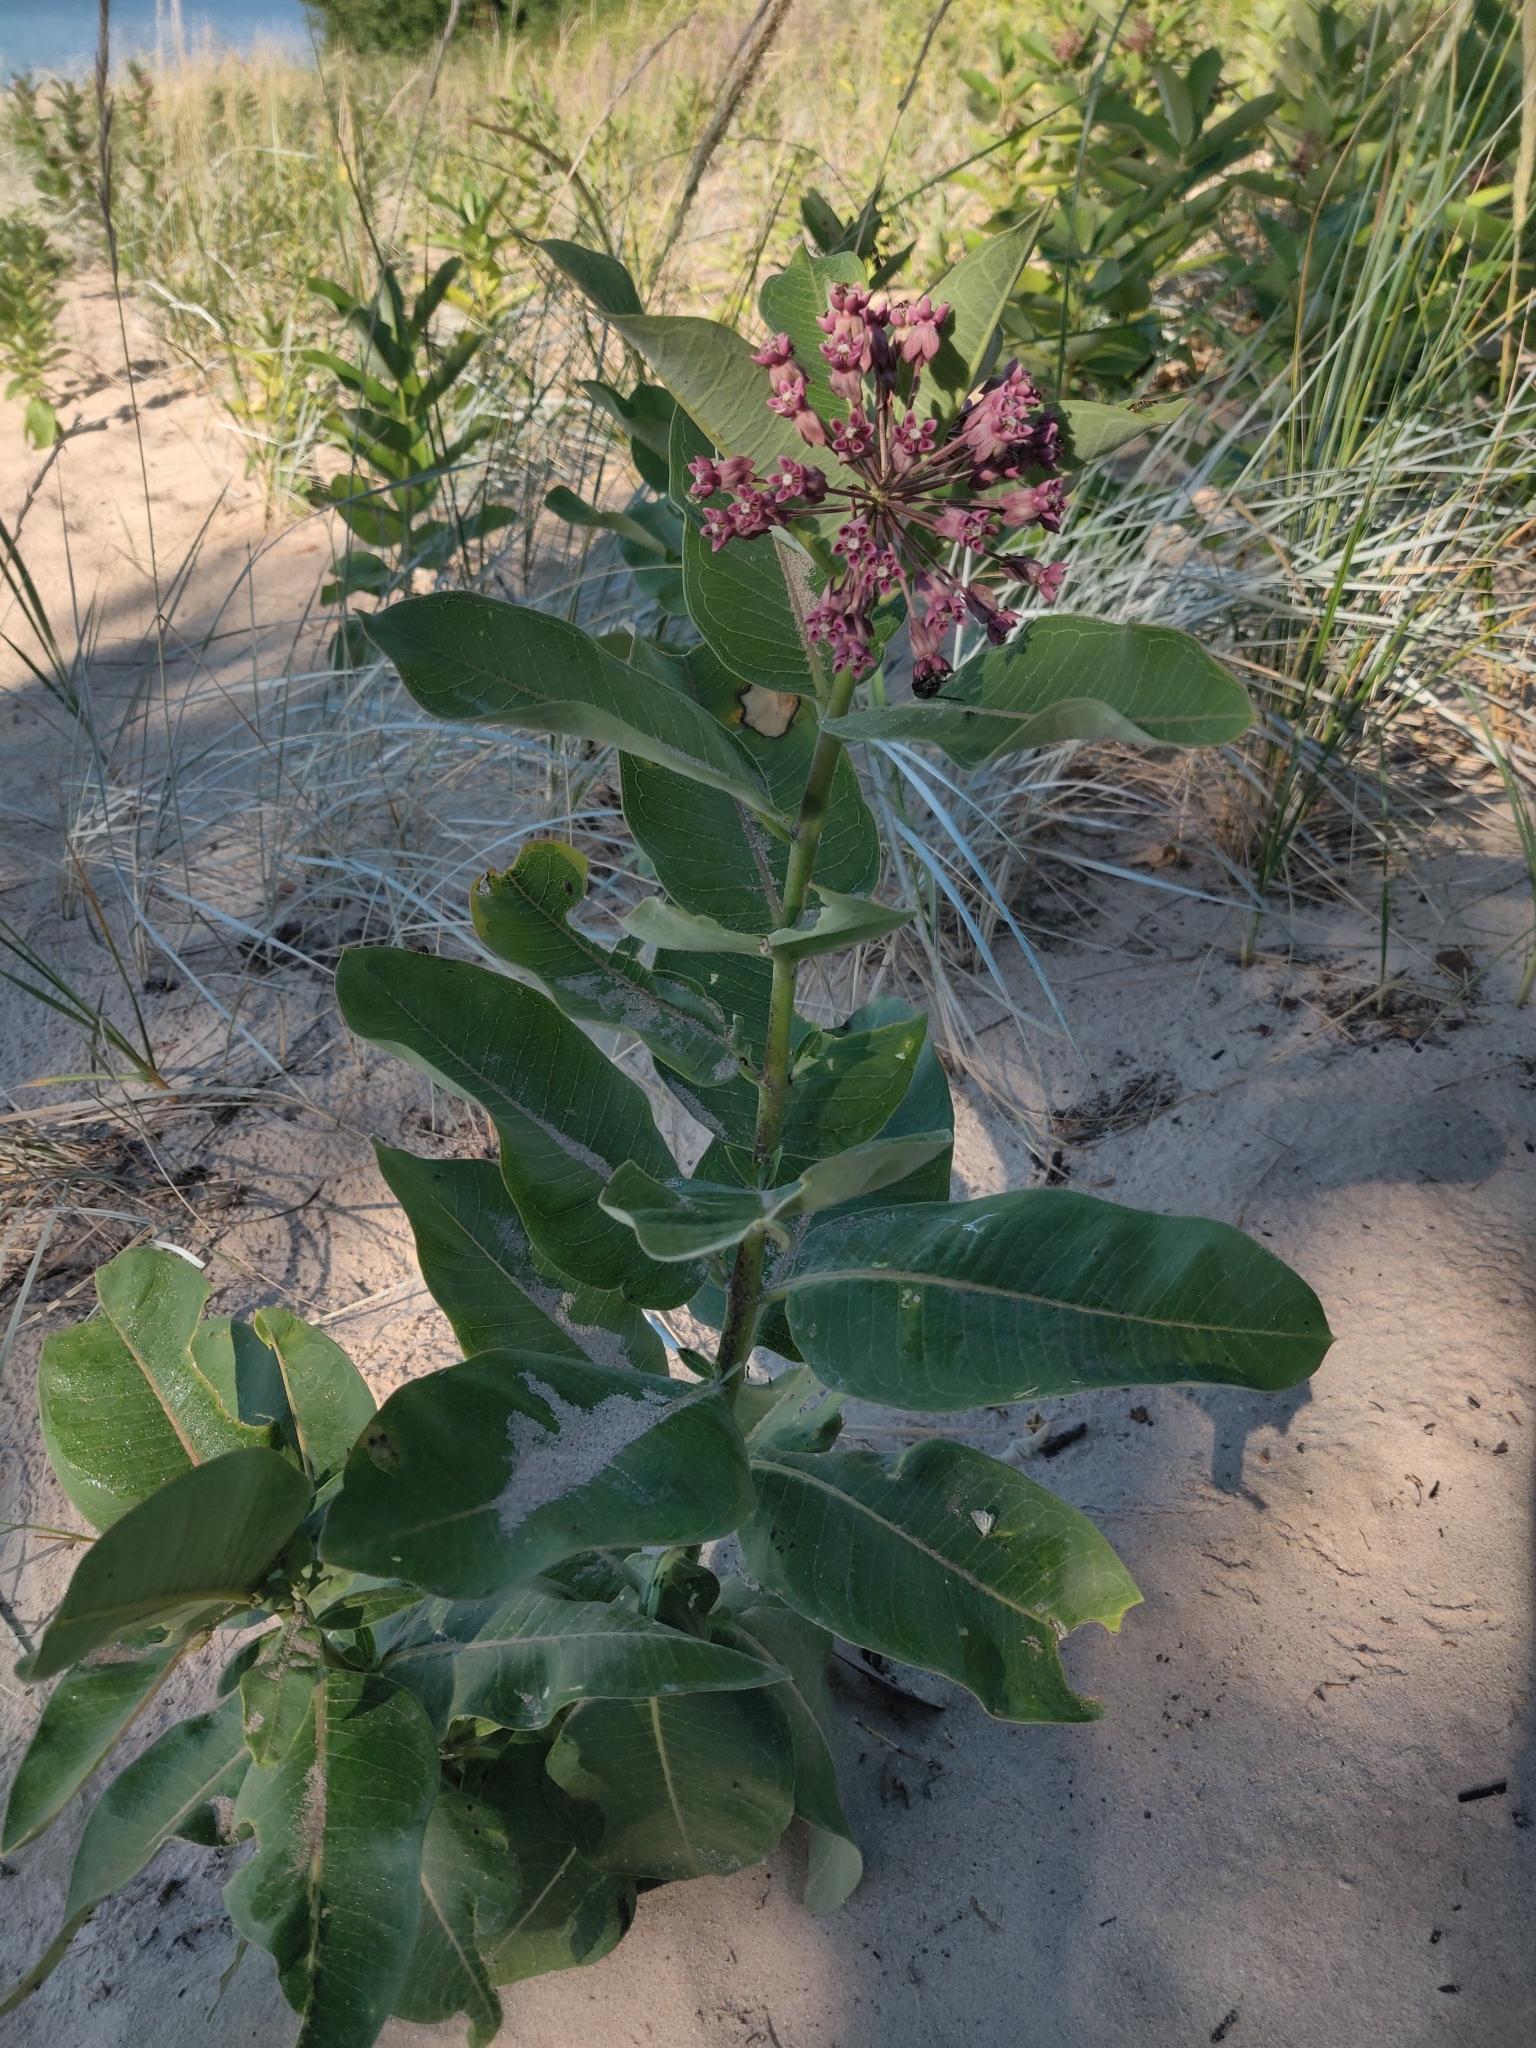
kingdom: Plantae
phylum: Tracheophyta
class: Magnoliopsida
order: Gentianales
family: Apocynaceae
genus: Asclepias
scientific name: Asclepias syriaca
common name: Common milkweed
